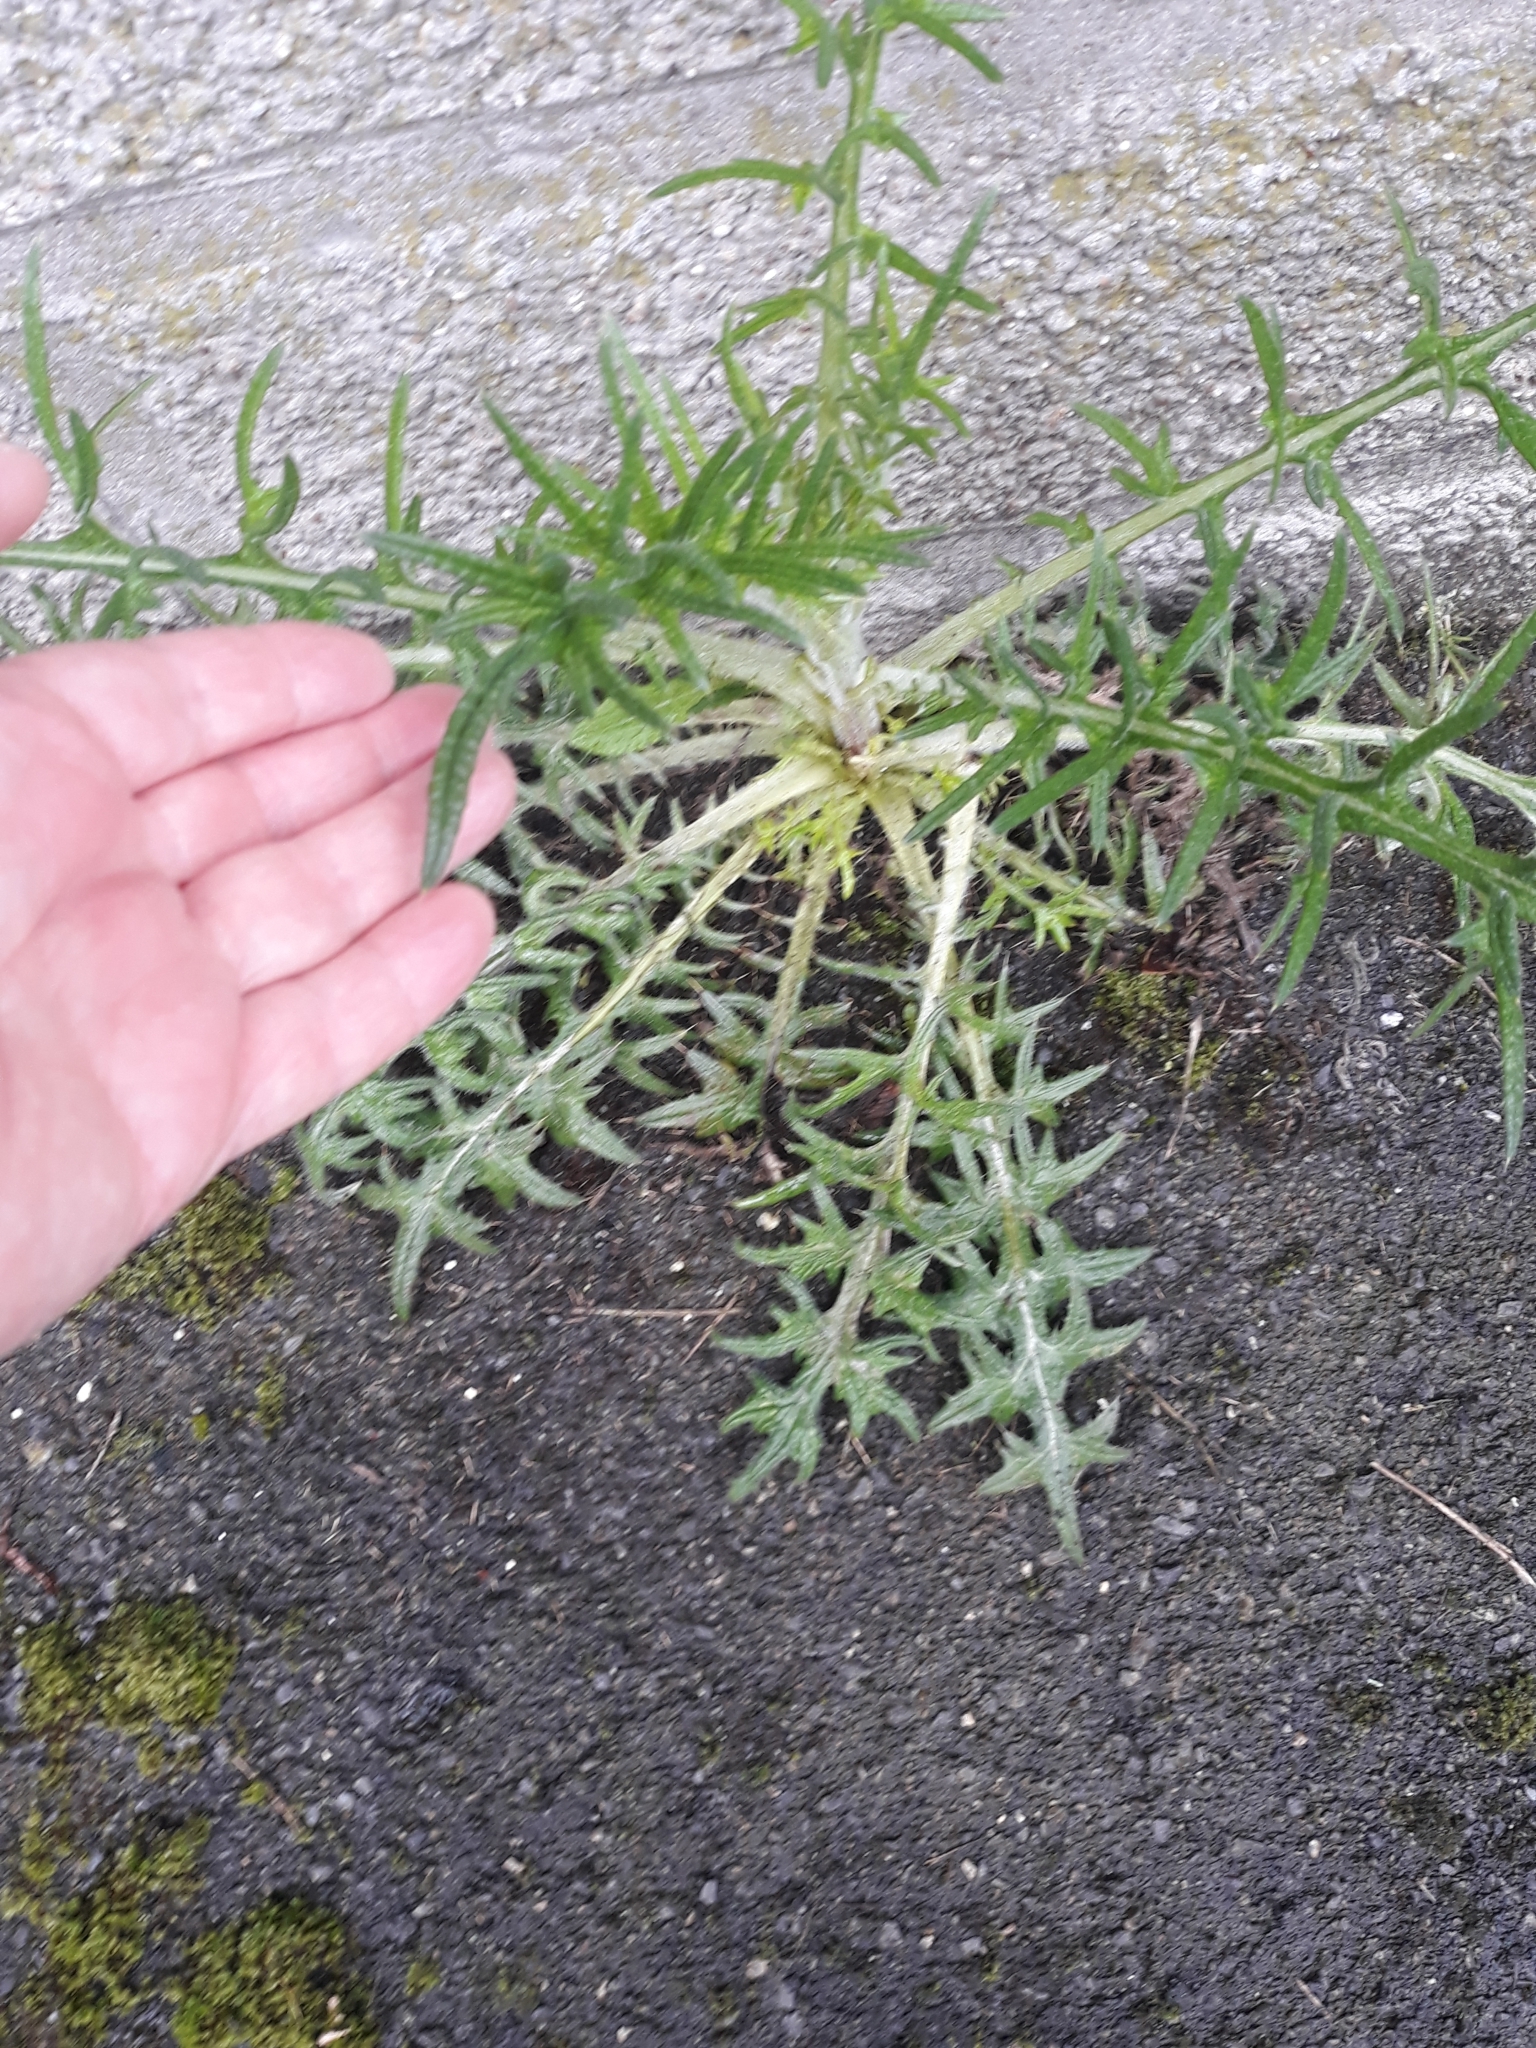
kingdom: Plantae
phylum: Tracheophyta
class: Magnoliopsida
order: Asterales
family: Asteraceae
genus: Cirsium
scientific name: Cirsium vulgare
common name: Bull thistle
